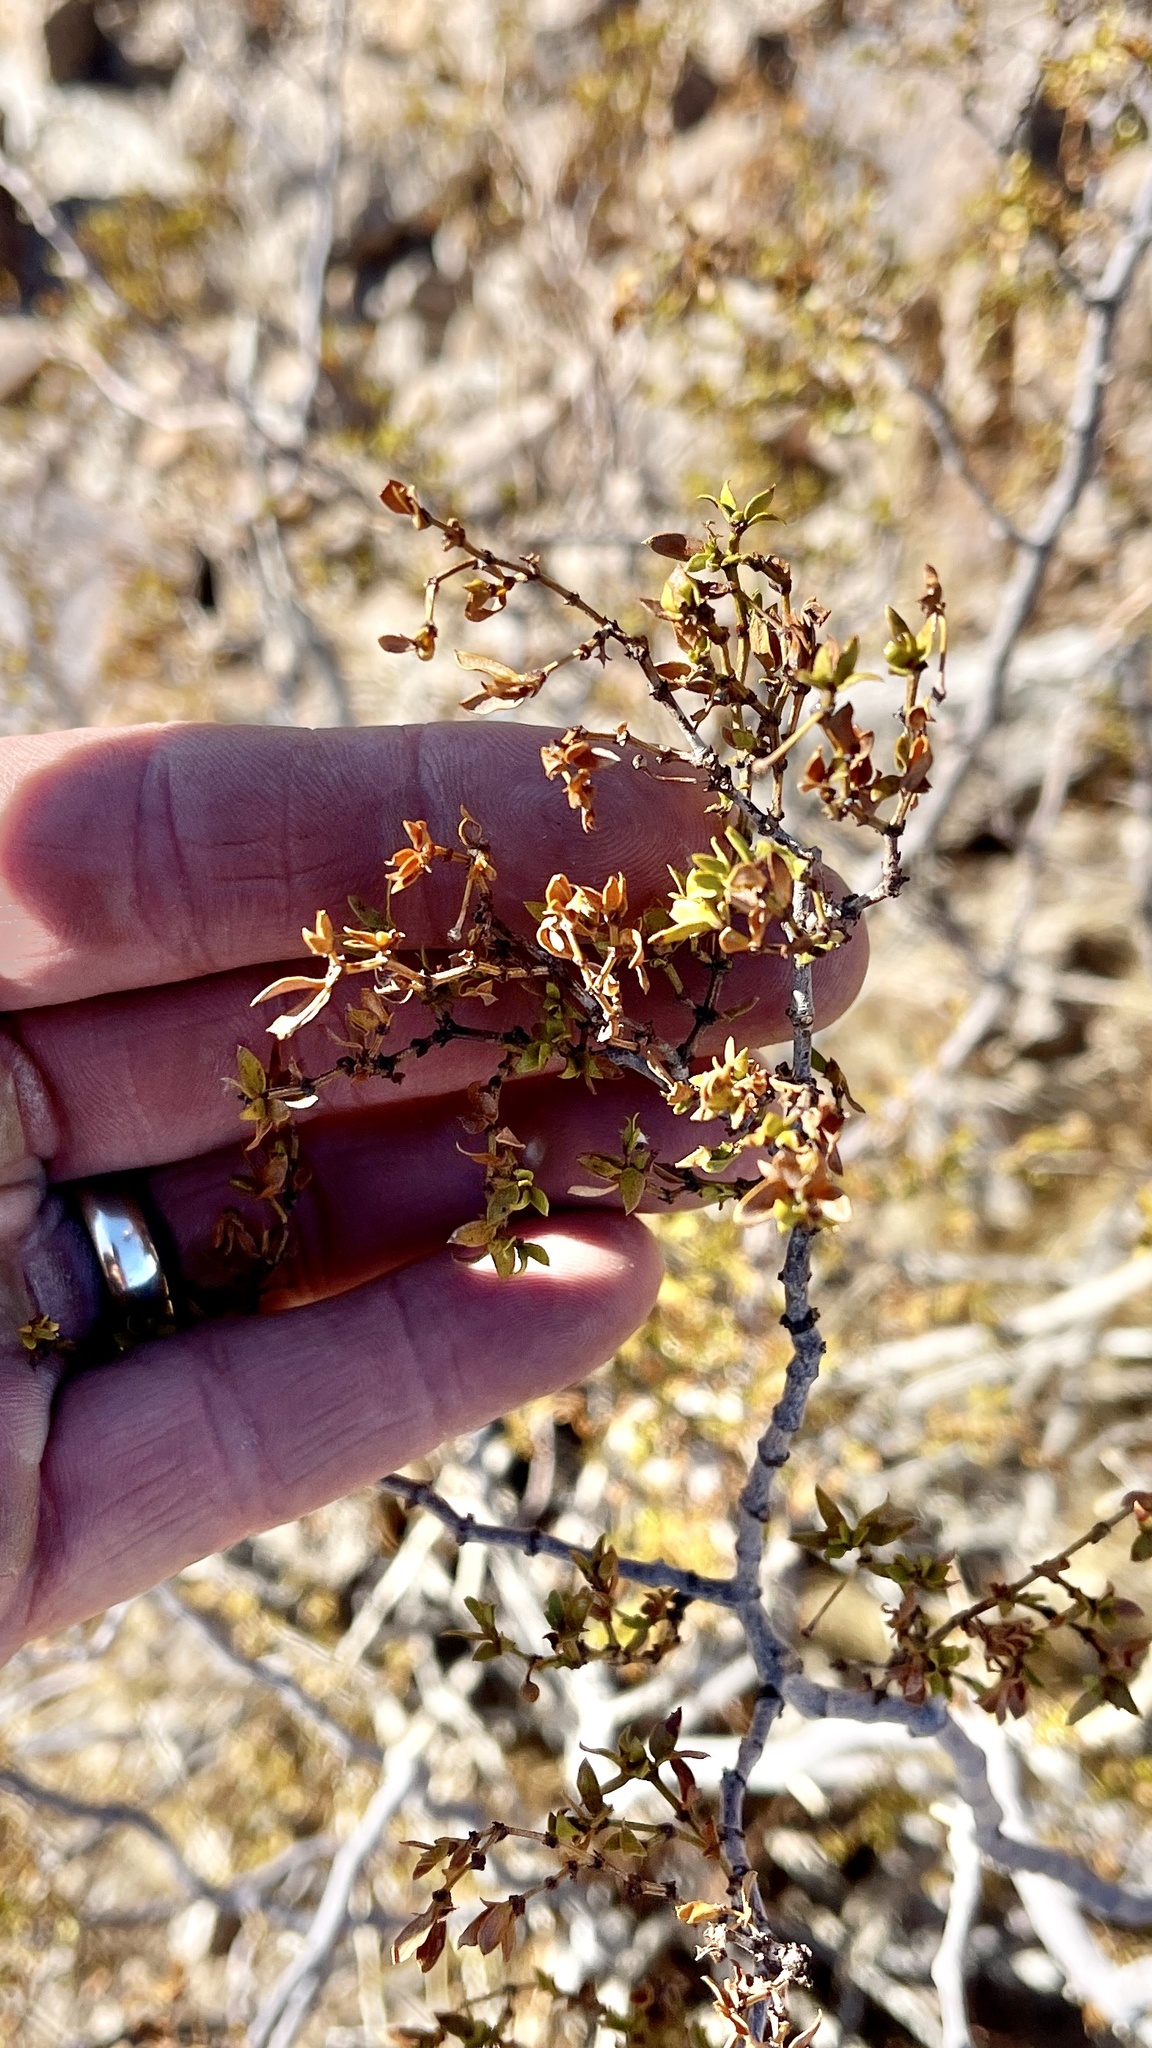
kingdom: Plantae
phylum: Tracheophyta
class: Magnoliopsida
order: Zygophyllales
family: Zygophyllaceae
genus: Larrea
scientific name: Larrea tridentata
